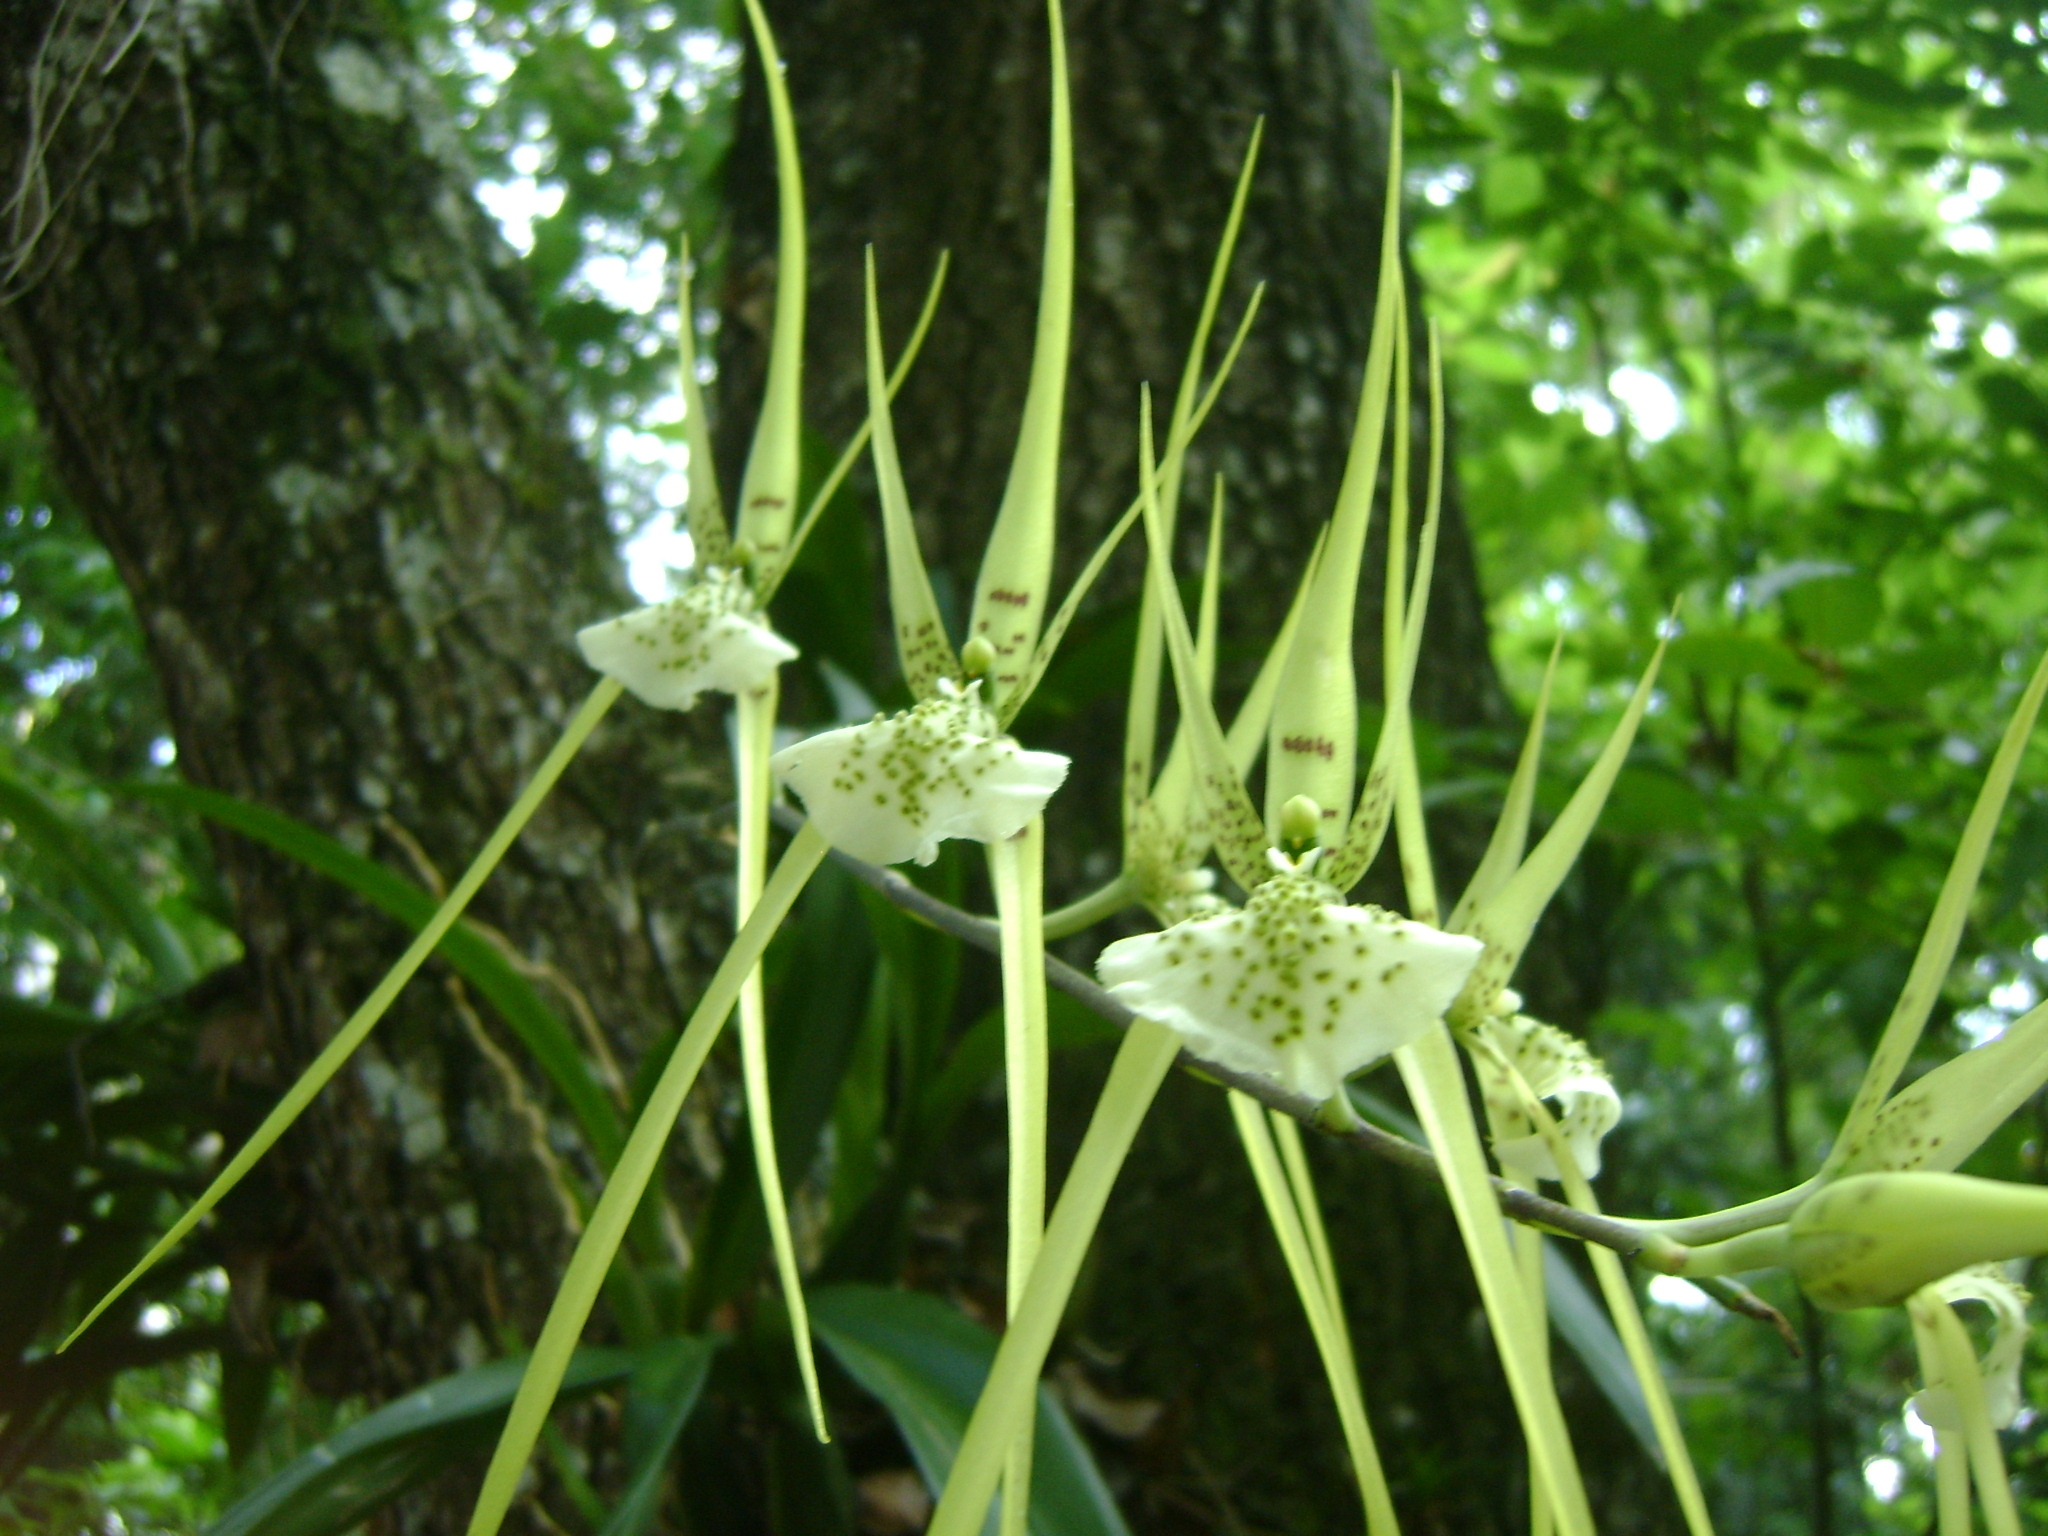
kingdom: Plantae
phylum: Tracheophyta
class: Liliopsida
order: Asparagales
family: Orchidaceae
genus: Brassia
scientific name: Brassia verrucosa
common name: Warty brassia
